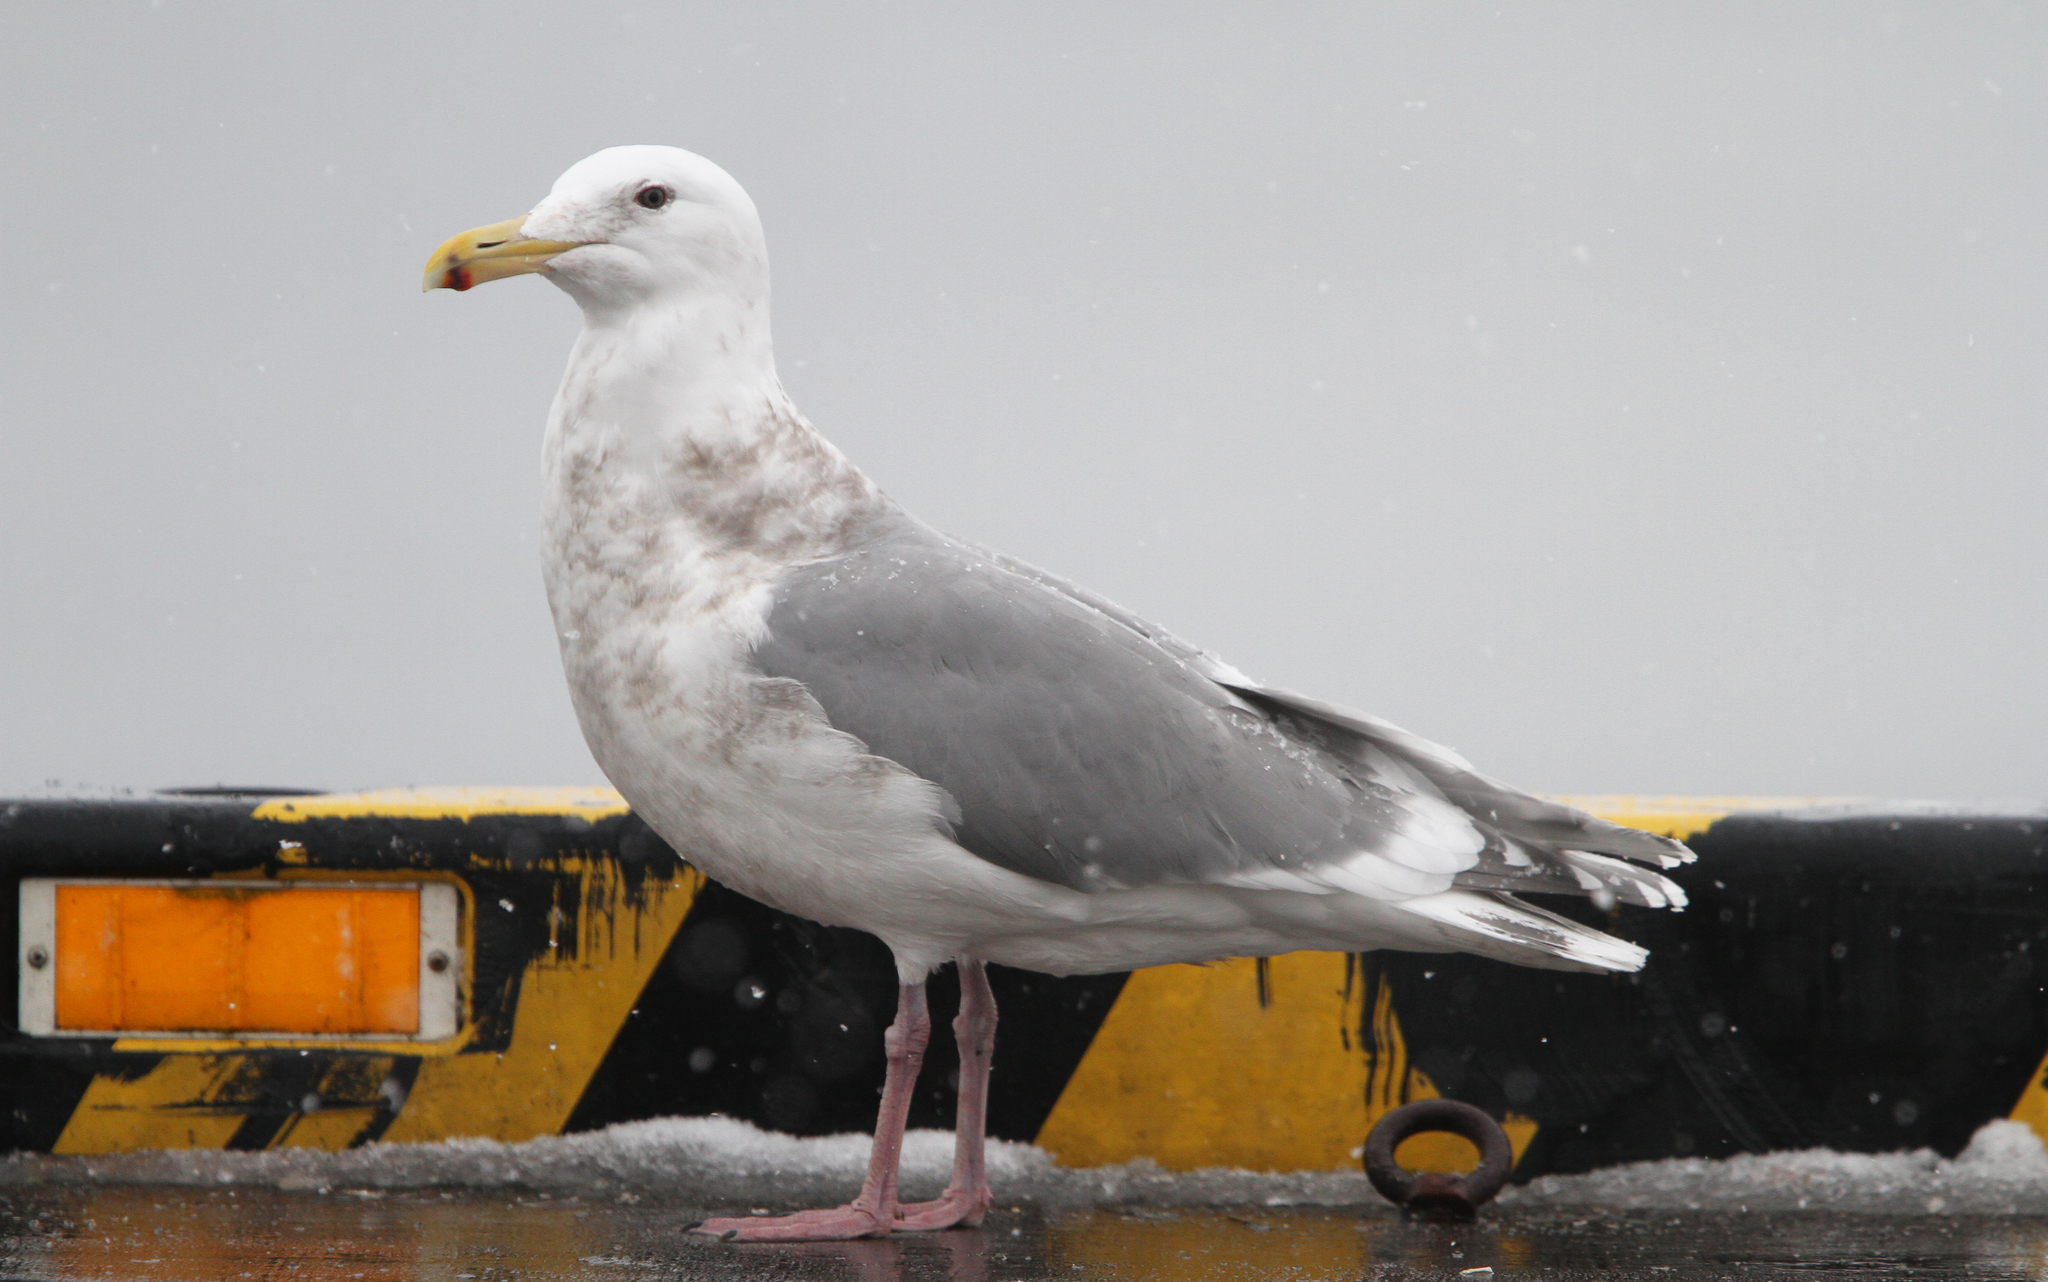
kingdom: Animalia
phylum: Chordata
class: Aves
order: Charadriiformes
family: Laridae
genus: Larus
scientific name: Larus glaucescens
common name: Glaucous-winged gull
